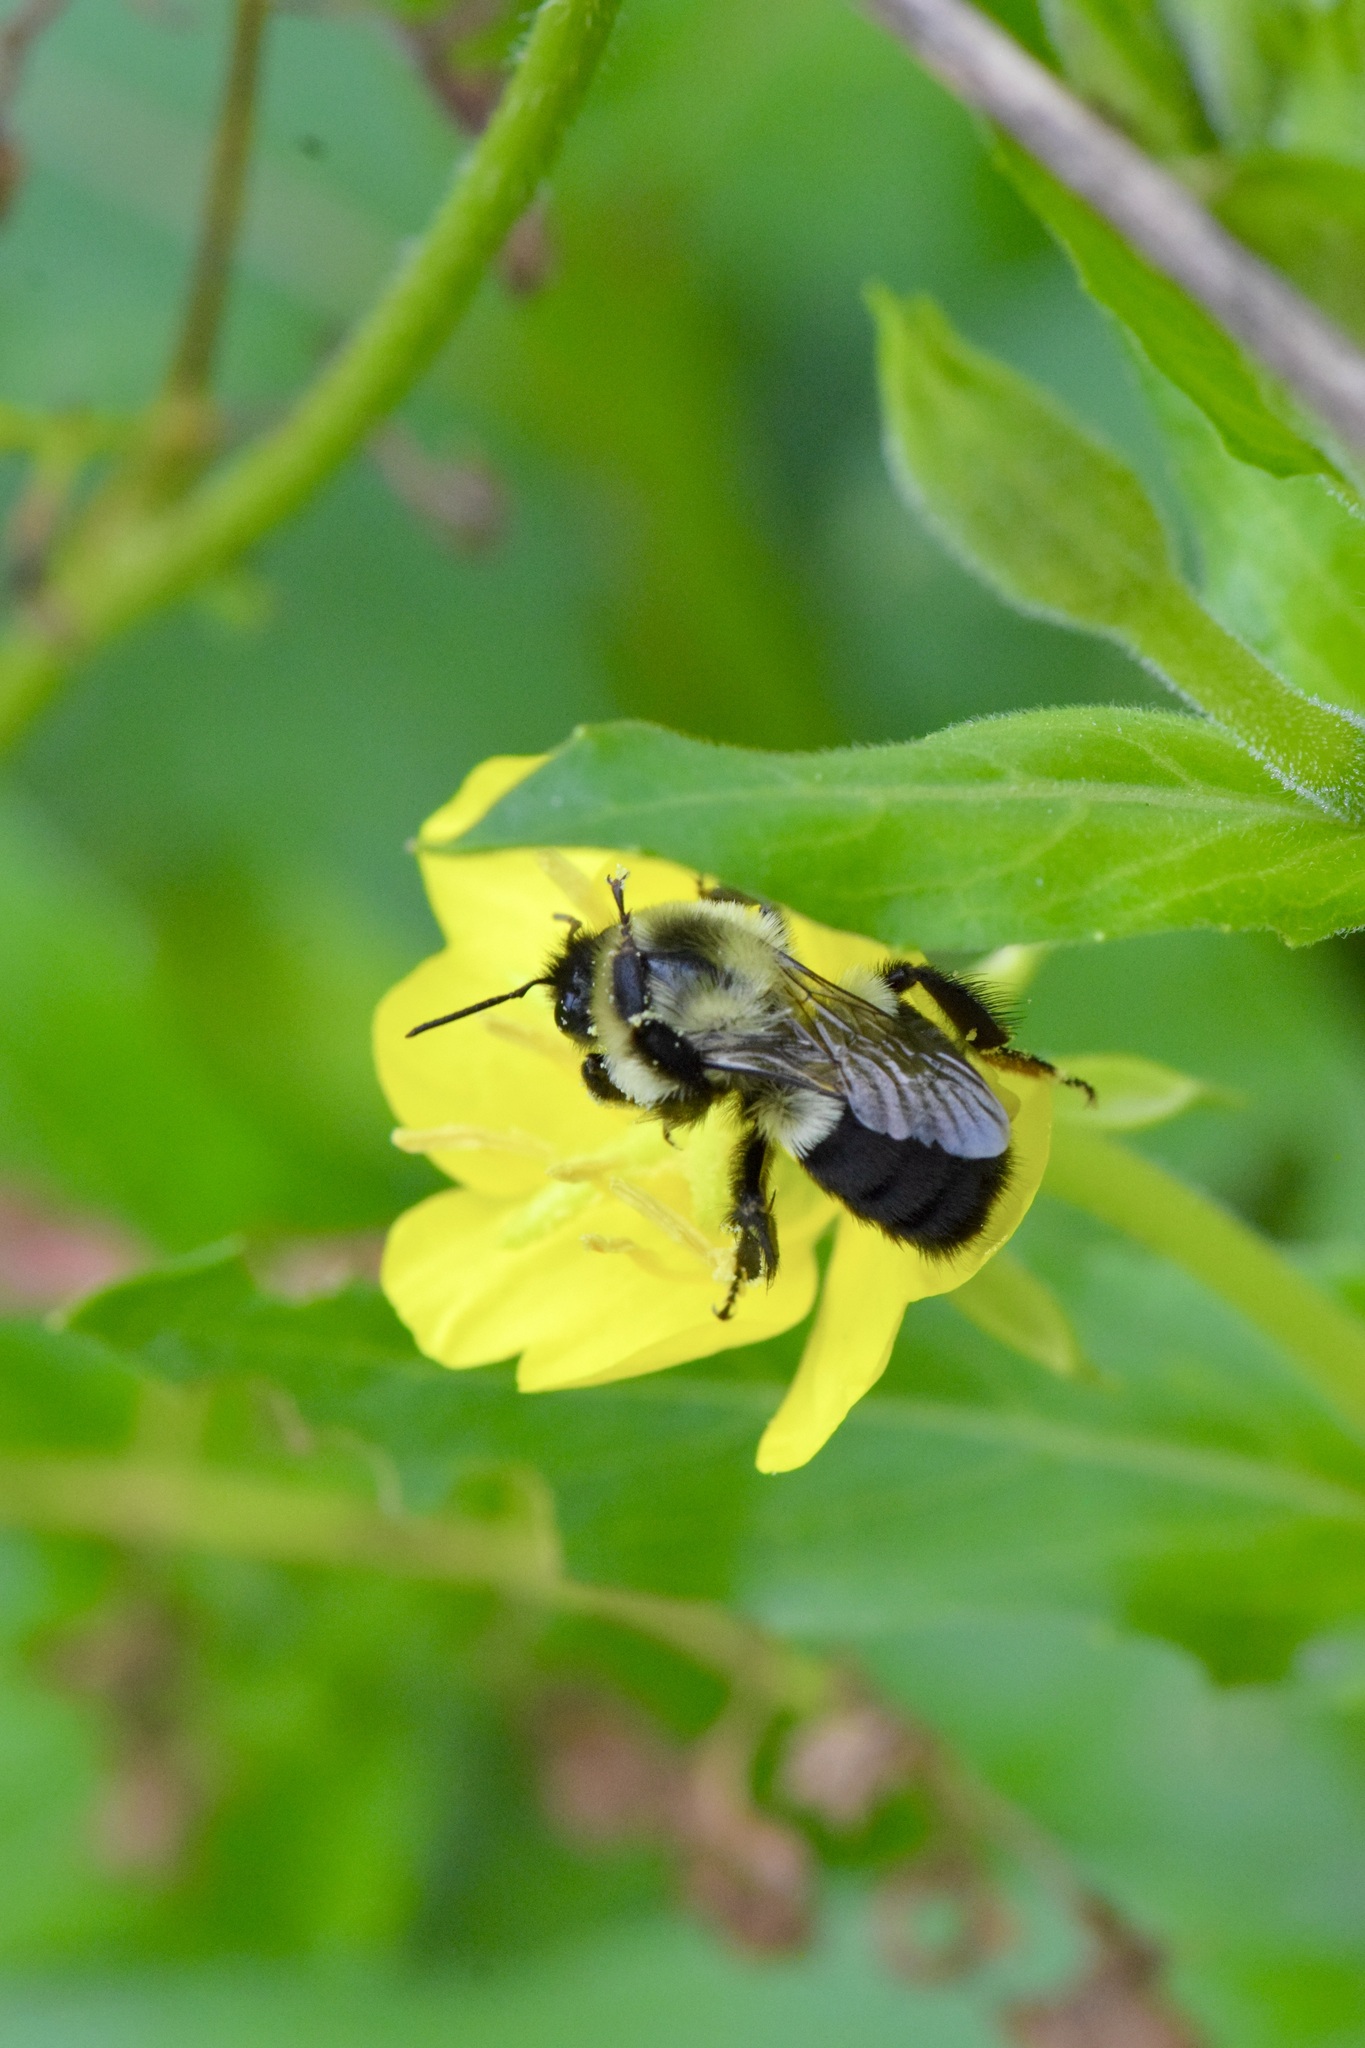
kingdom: Animalia
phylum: Arthropoda
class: Insecta
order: Hymenoptera
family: Apidae
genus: Bombus
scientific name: Bombus impatiens
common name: Common eastern bumble bee
